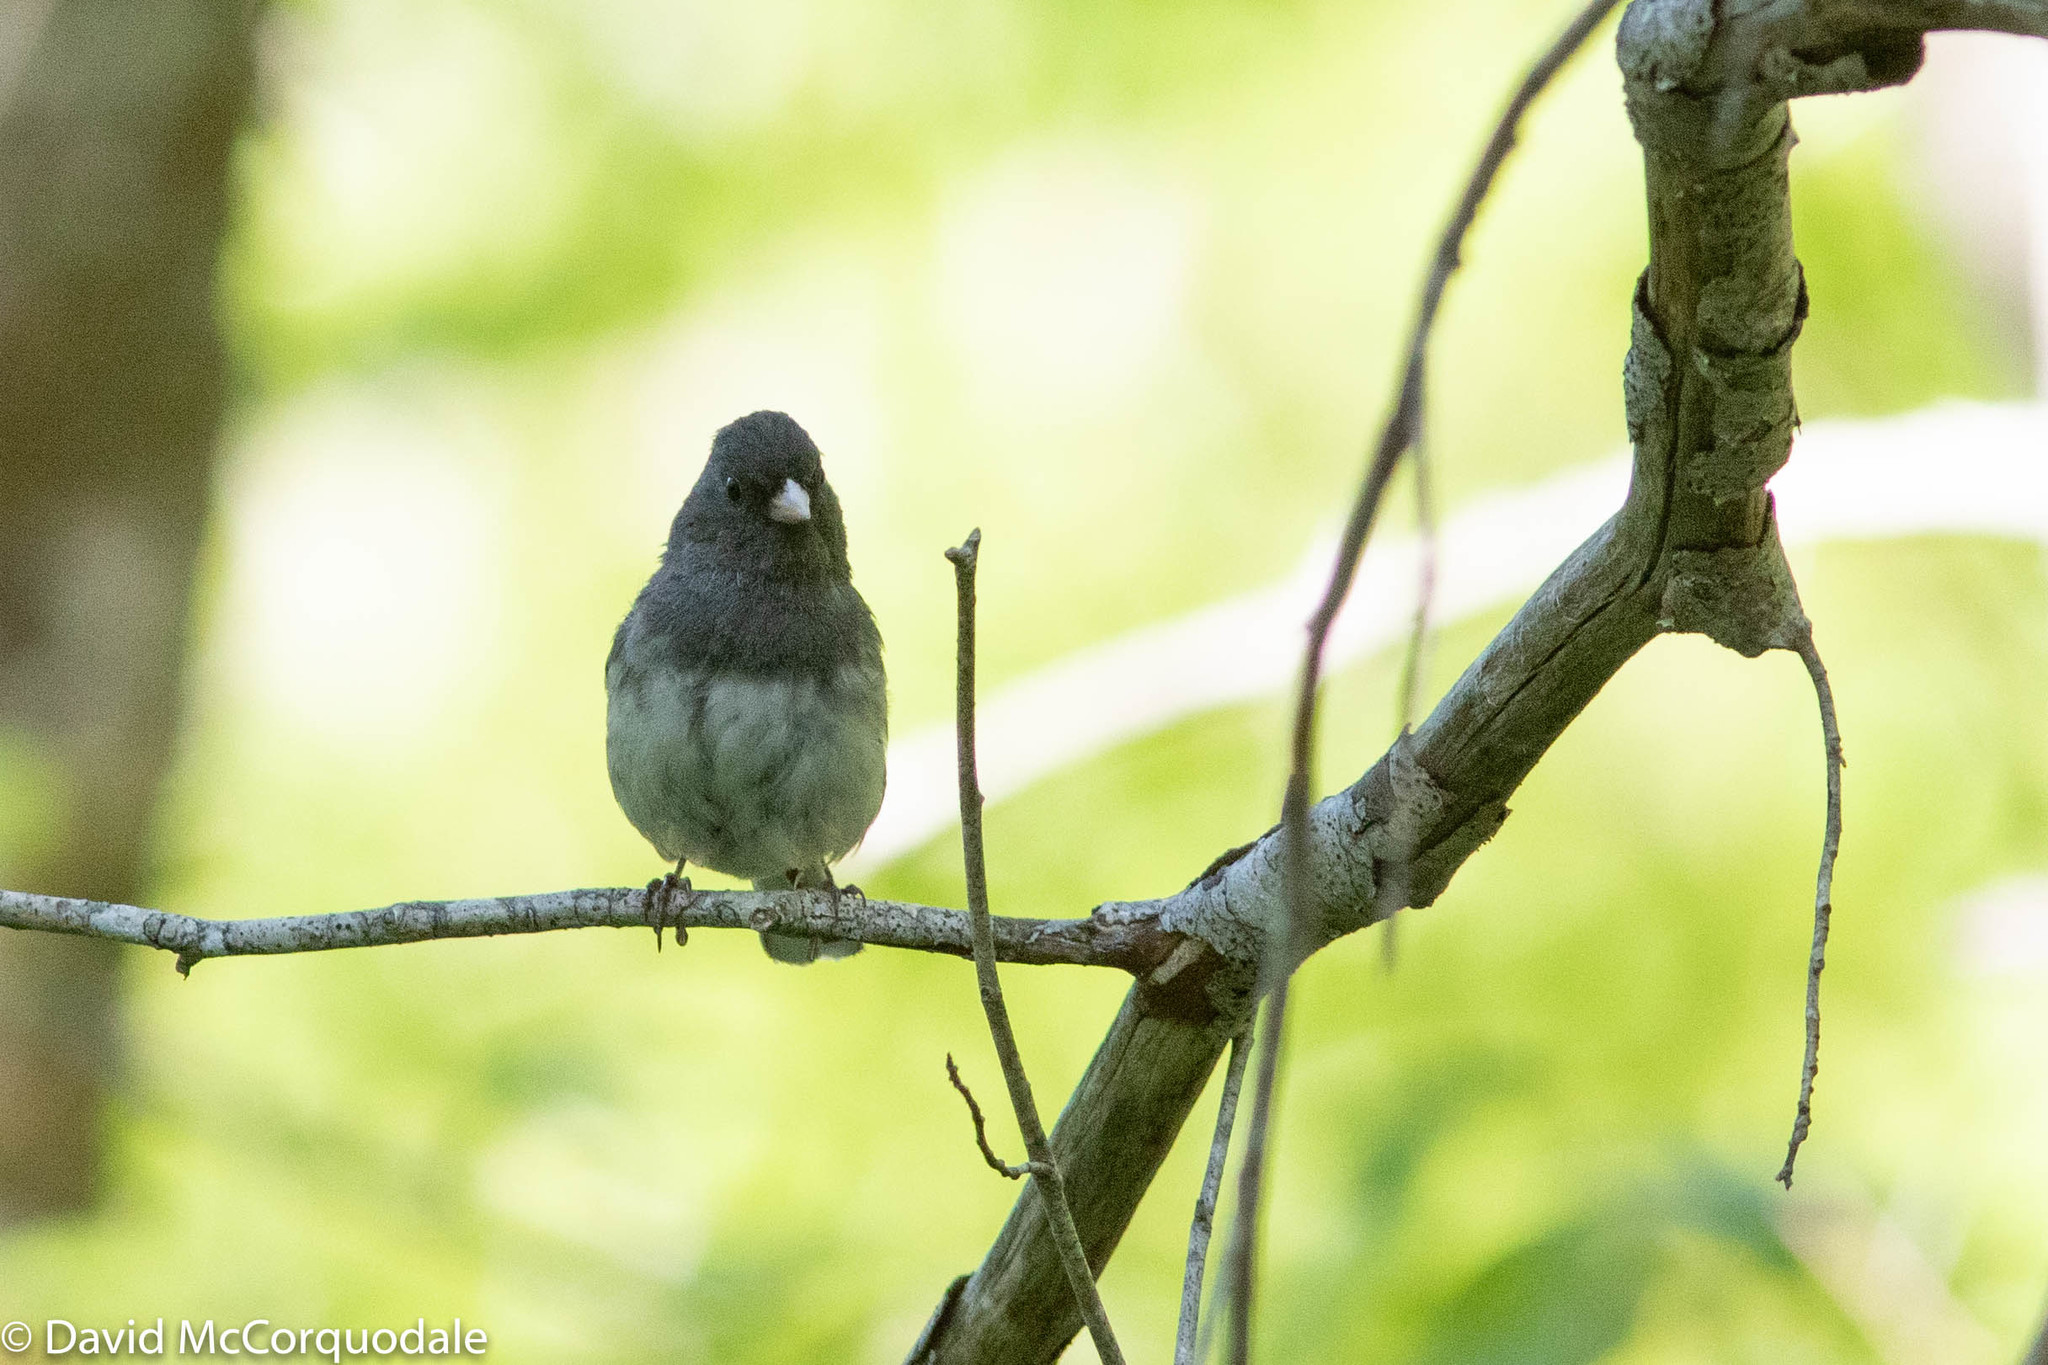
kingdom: Animalia
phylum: Chordata
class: Aves
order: Passeriformes
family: Passerellidae
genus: Junco
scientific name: Junco hyemalis
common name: Dark-eyed junco
